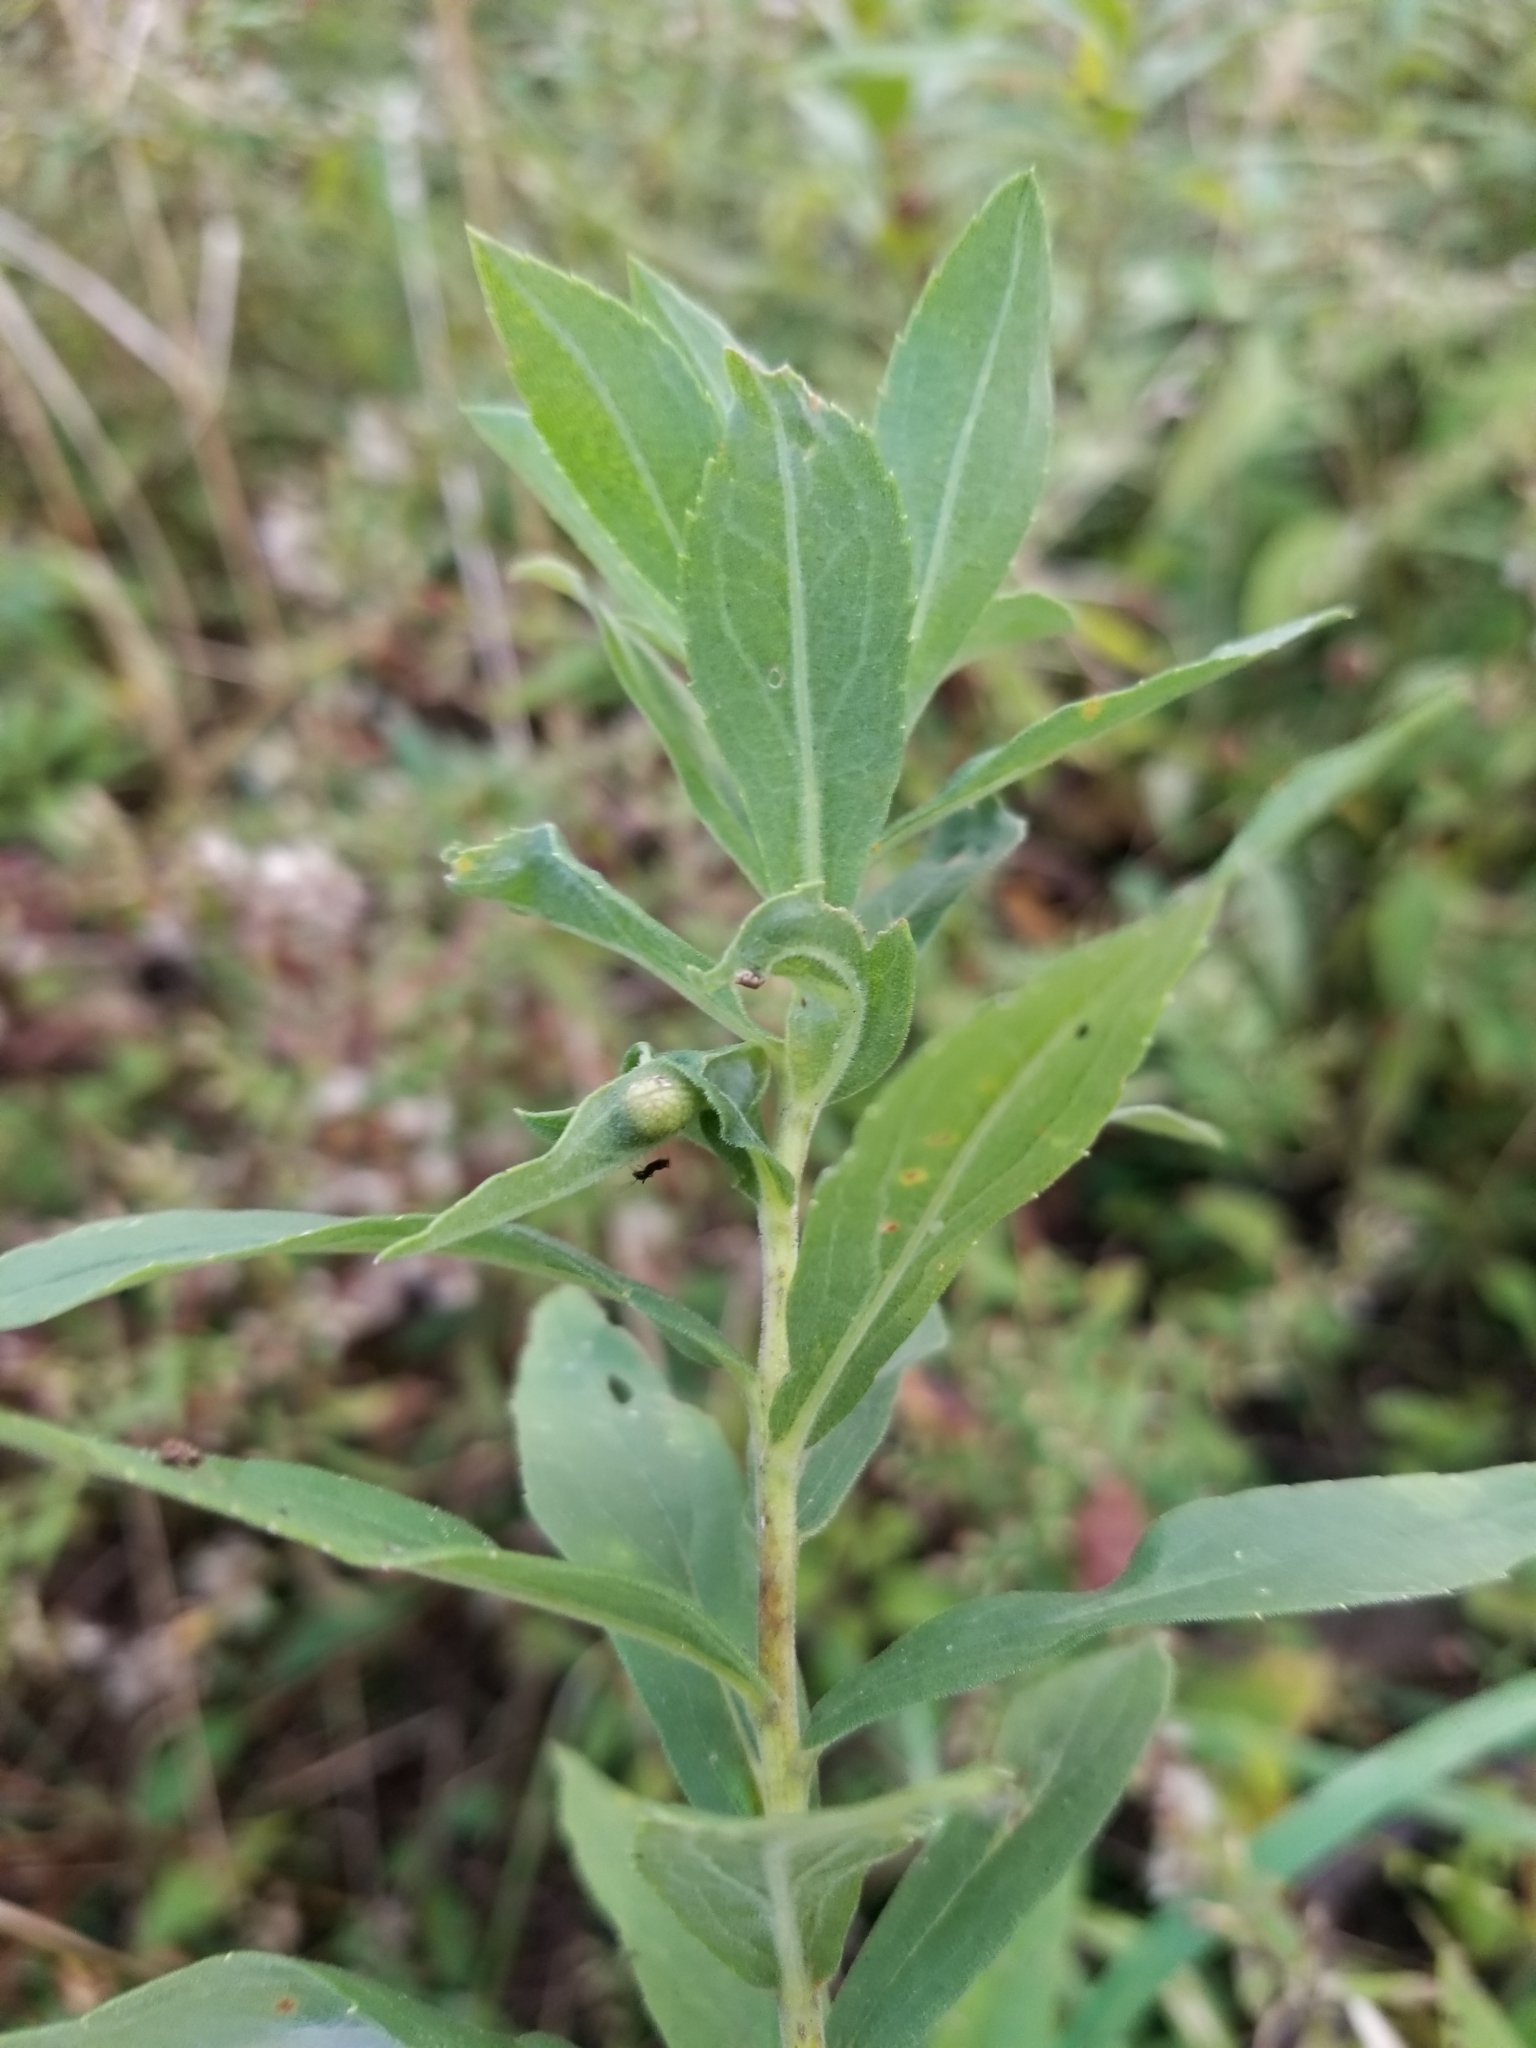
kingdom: Animalia
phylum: Arthropoda
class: Insecta
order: Diptera
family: Cecidomyiidae
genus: Asphondylia
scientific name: Asphondylia solidaginis
